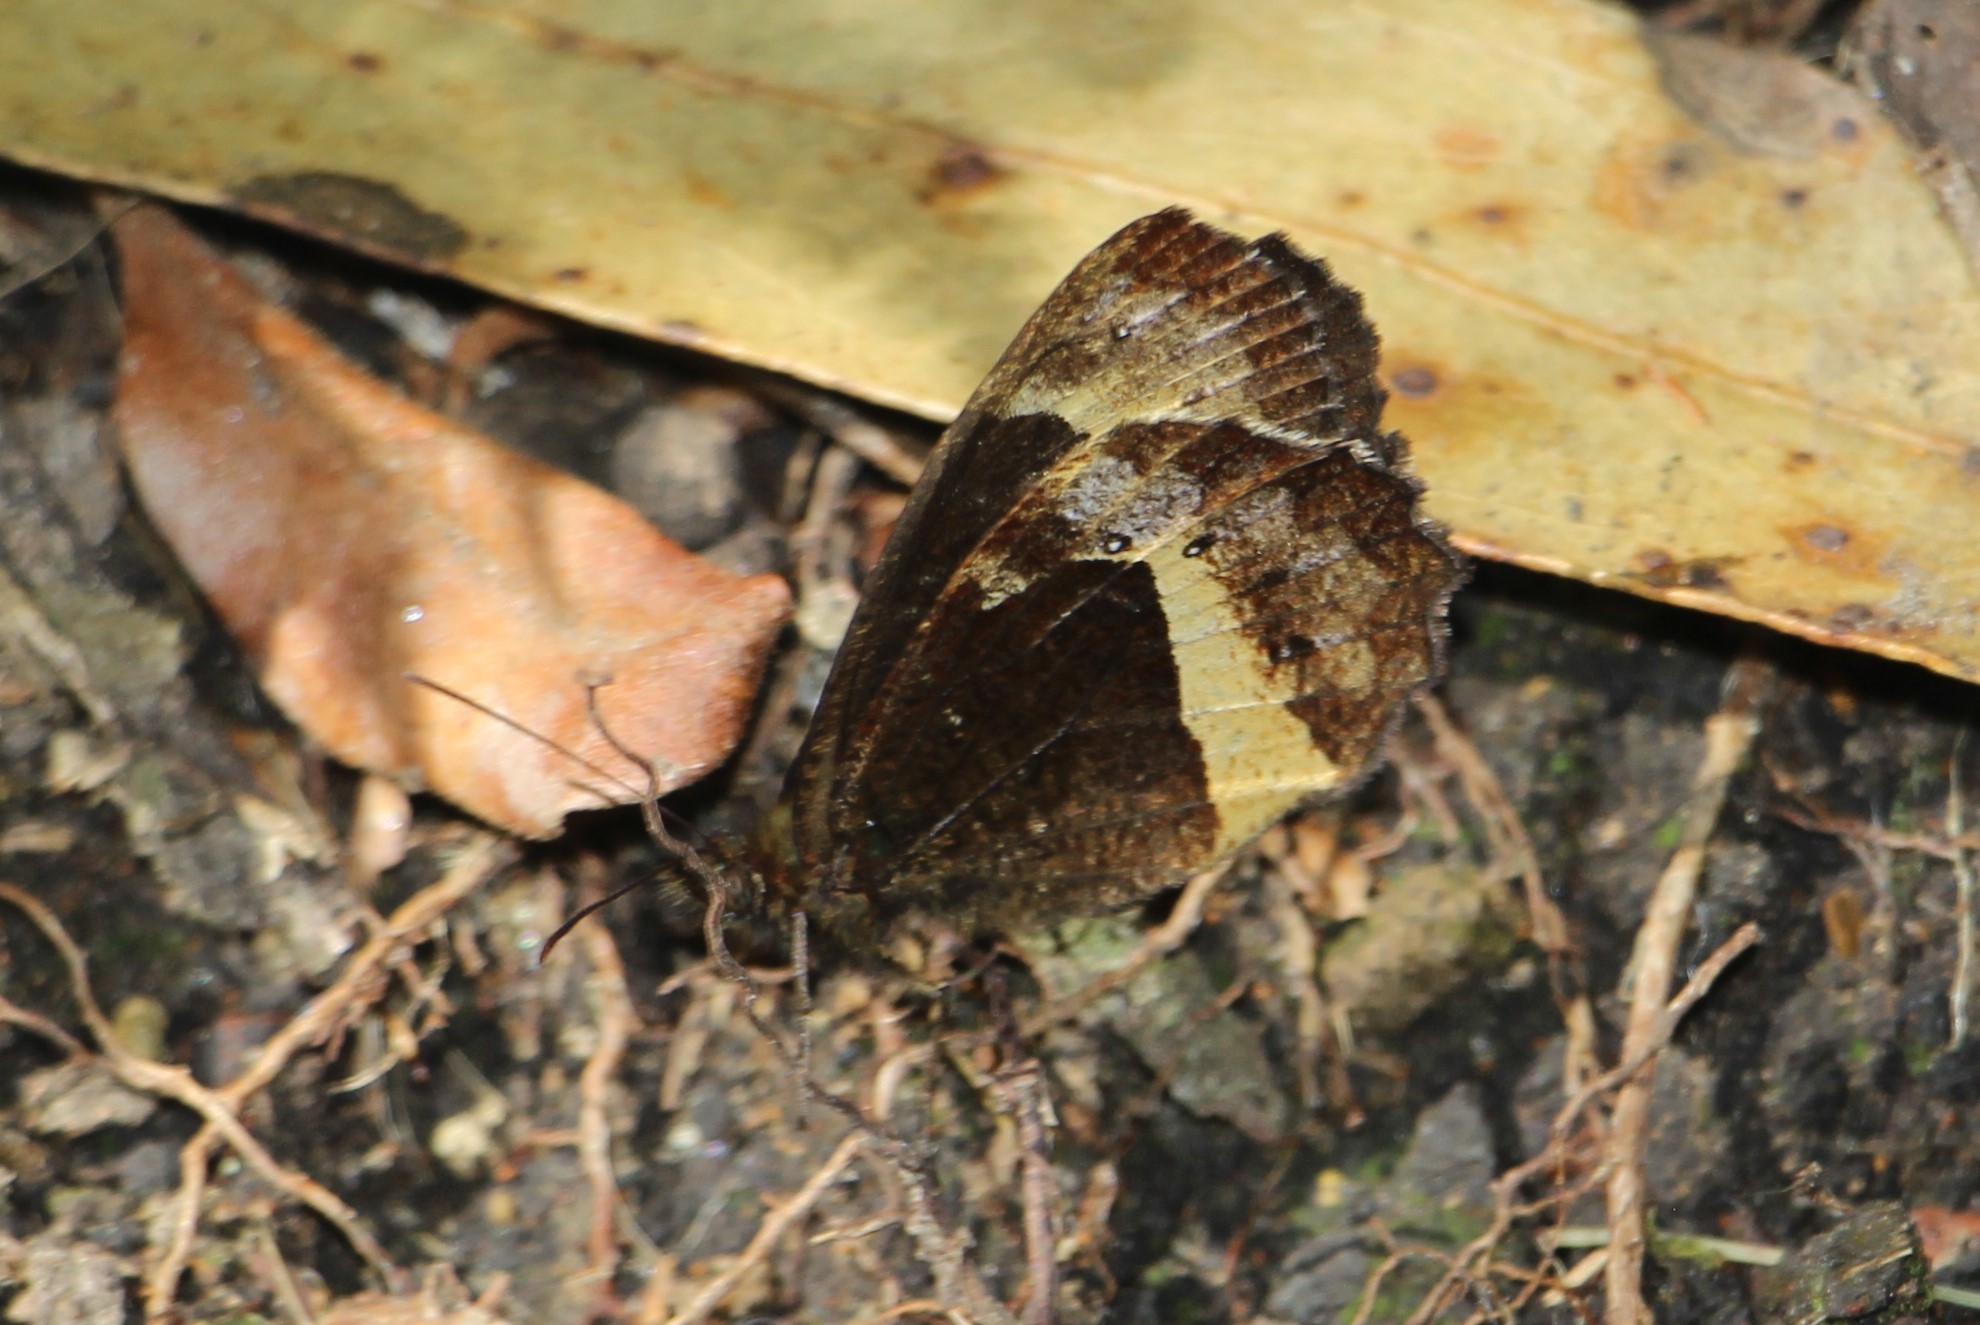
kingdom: Animalia
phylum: Arthropoda
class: Insecta
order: Lepidoptera
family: Nymphalidae
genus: Pedaliodes
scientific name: Pedaliodes
